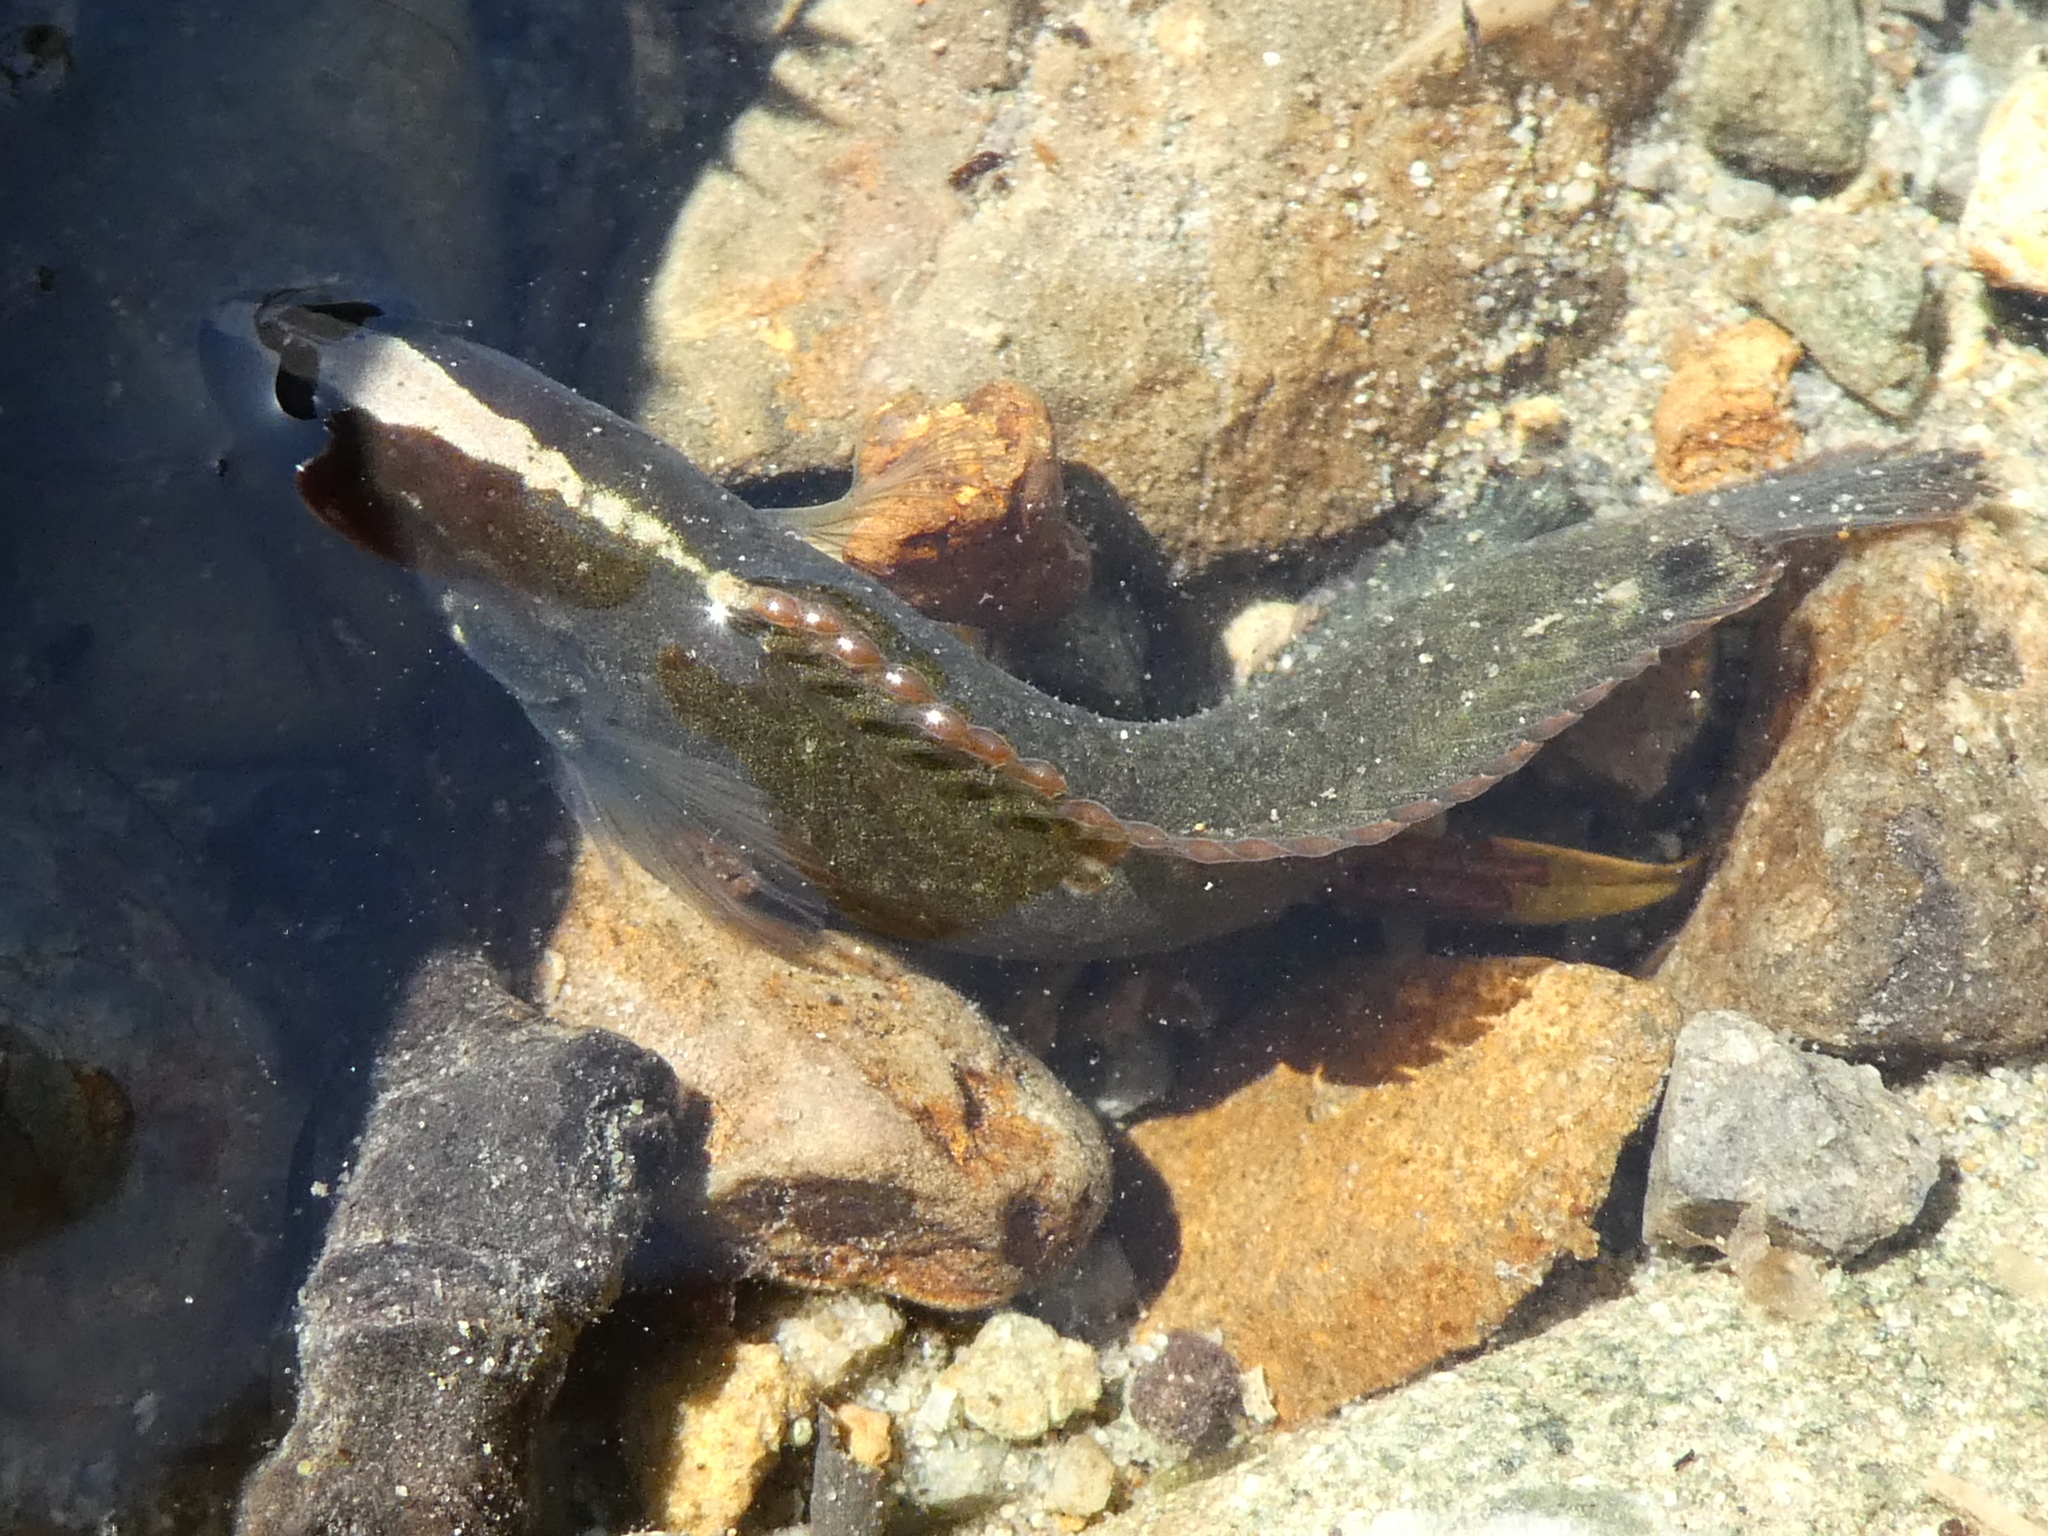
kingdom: Animalia
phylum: Chordata
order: Perciformes
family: Plesiopidae
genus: Acanthoclinus
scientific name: Acanthoclinus fuscus
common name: Olive rockfish
